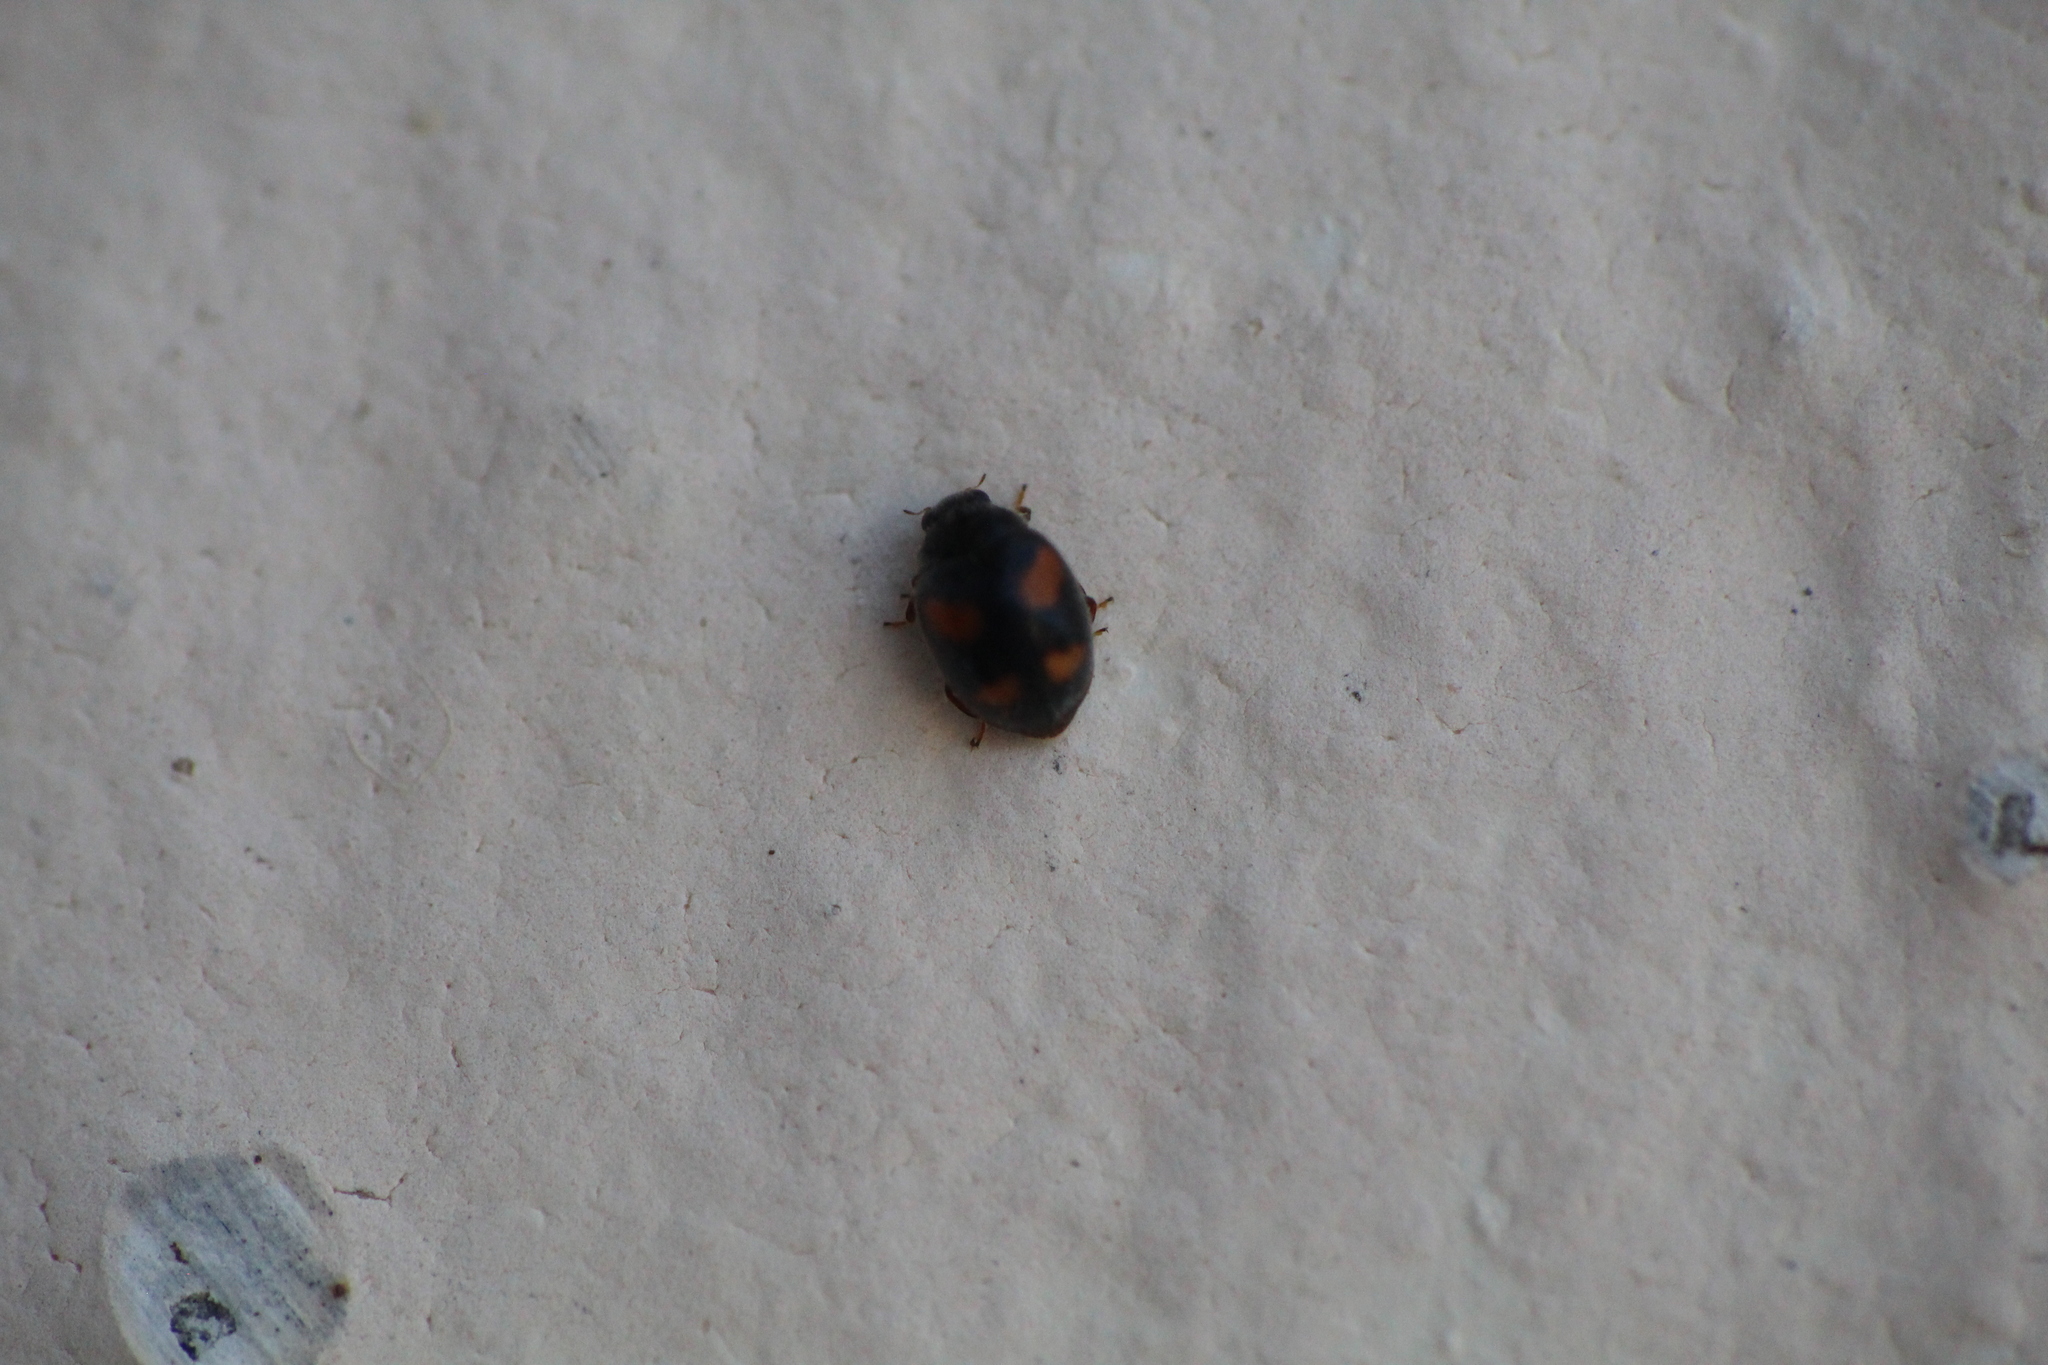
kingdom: Animalia
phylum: Arthropoda
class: Insecta
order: Coleoptera
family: Coccinellidae
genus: Nephus
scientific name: Nephus quadrimaculatus
